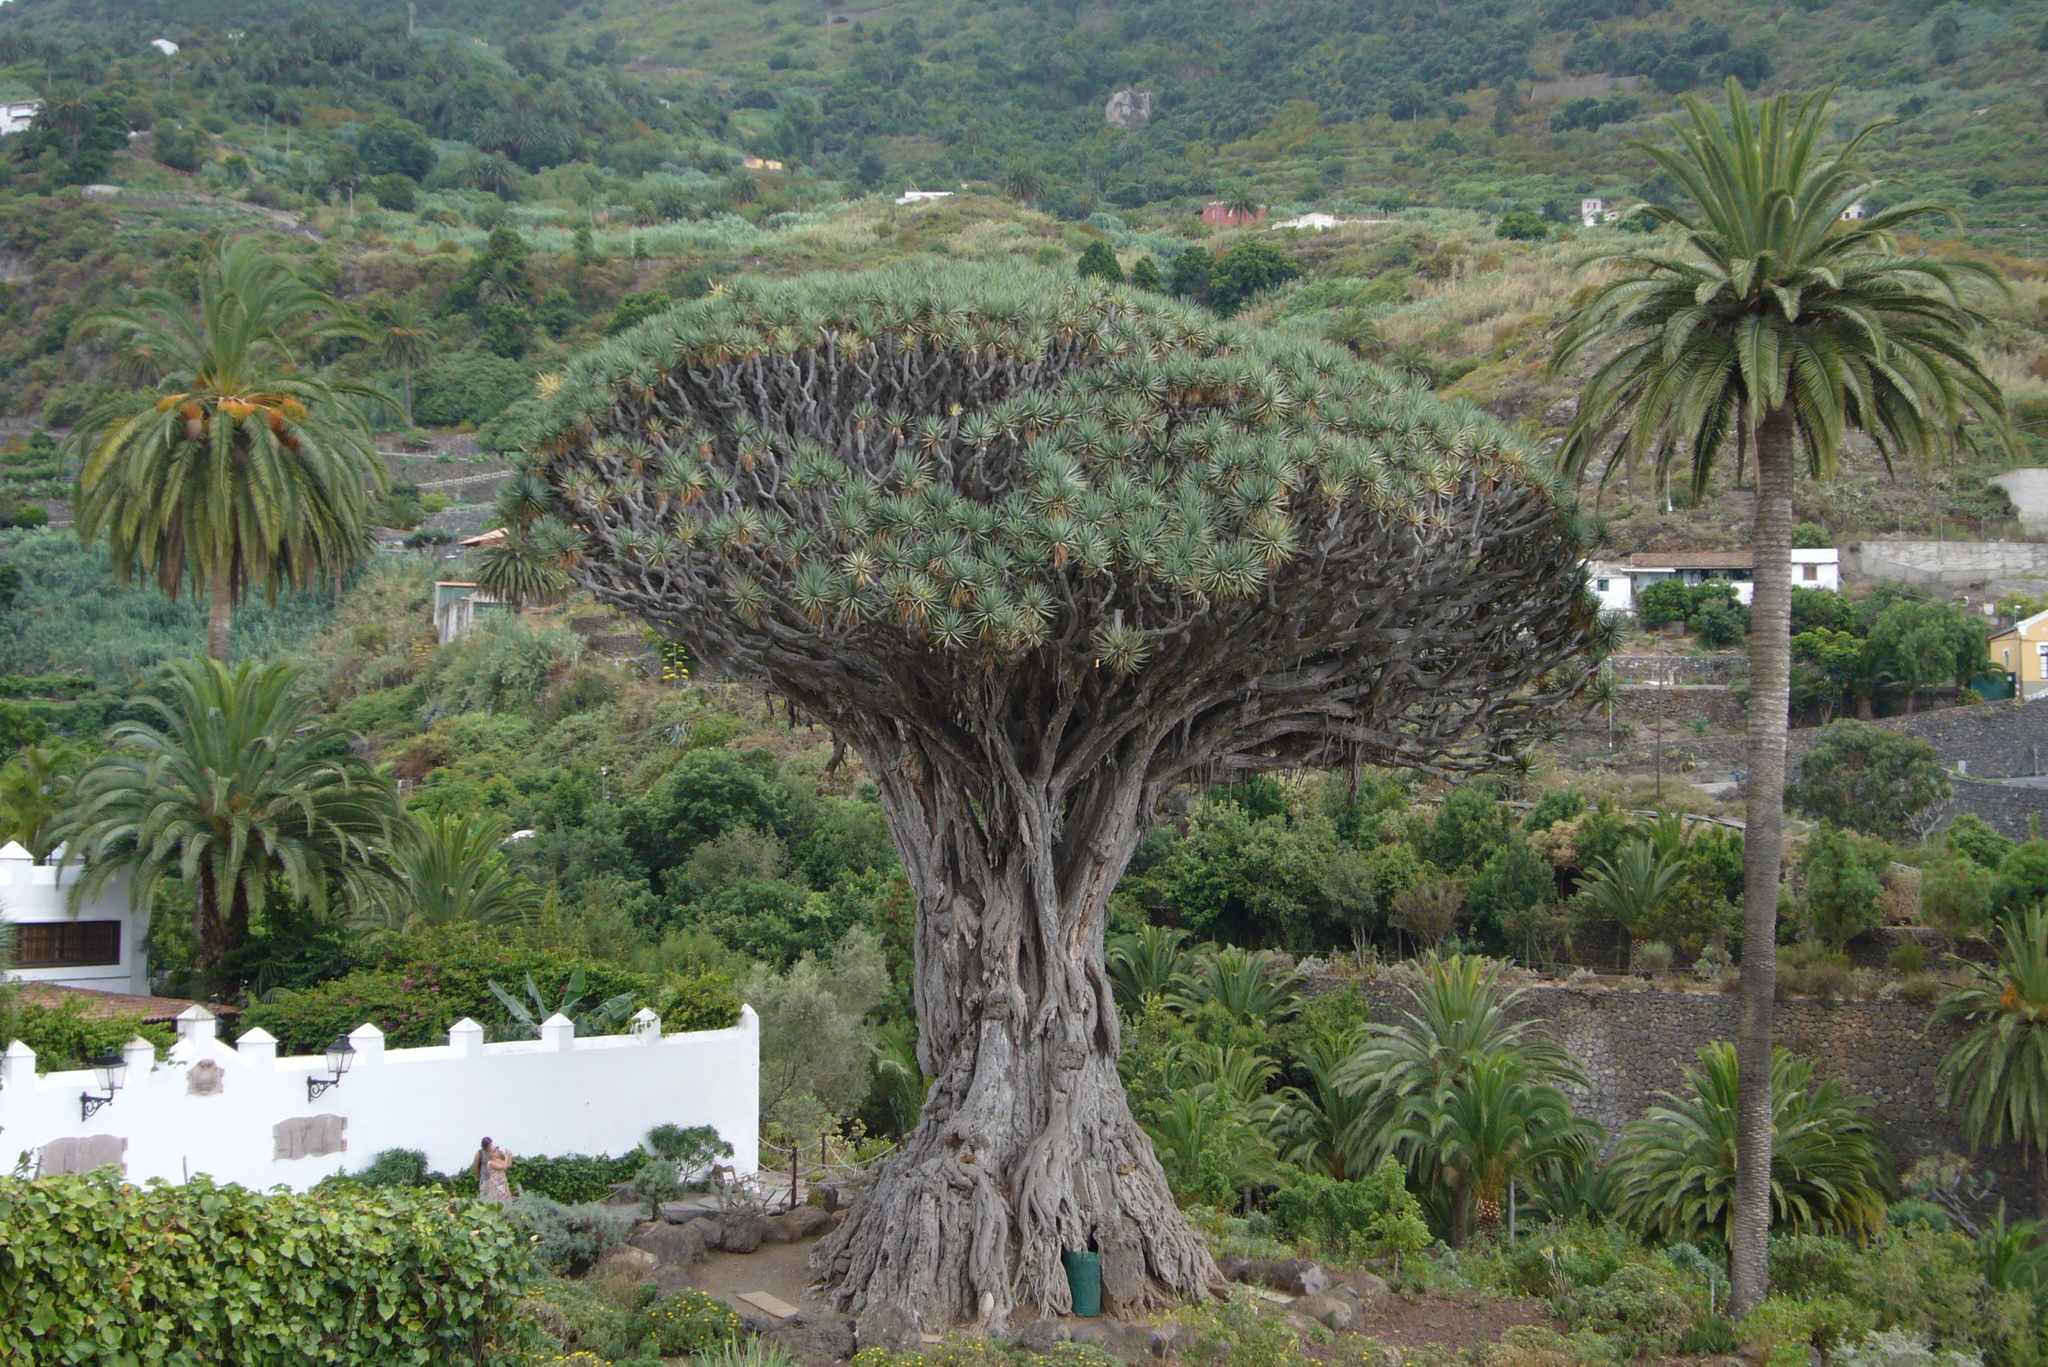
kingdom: Plantae
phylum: Tracheophyta
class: Liliopsida
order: Asparagales
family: Asparagaceae
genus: Dracaena
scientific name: Dracaena draco
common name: Canary island dragon tree
